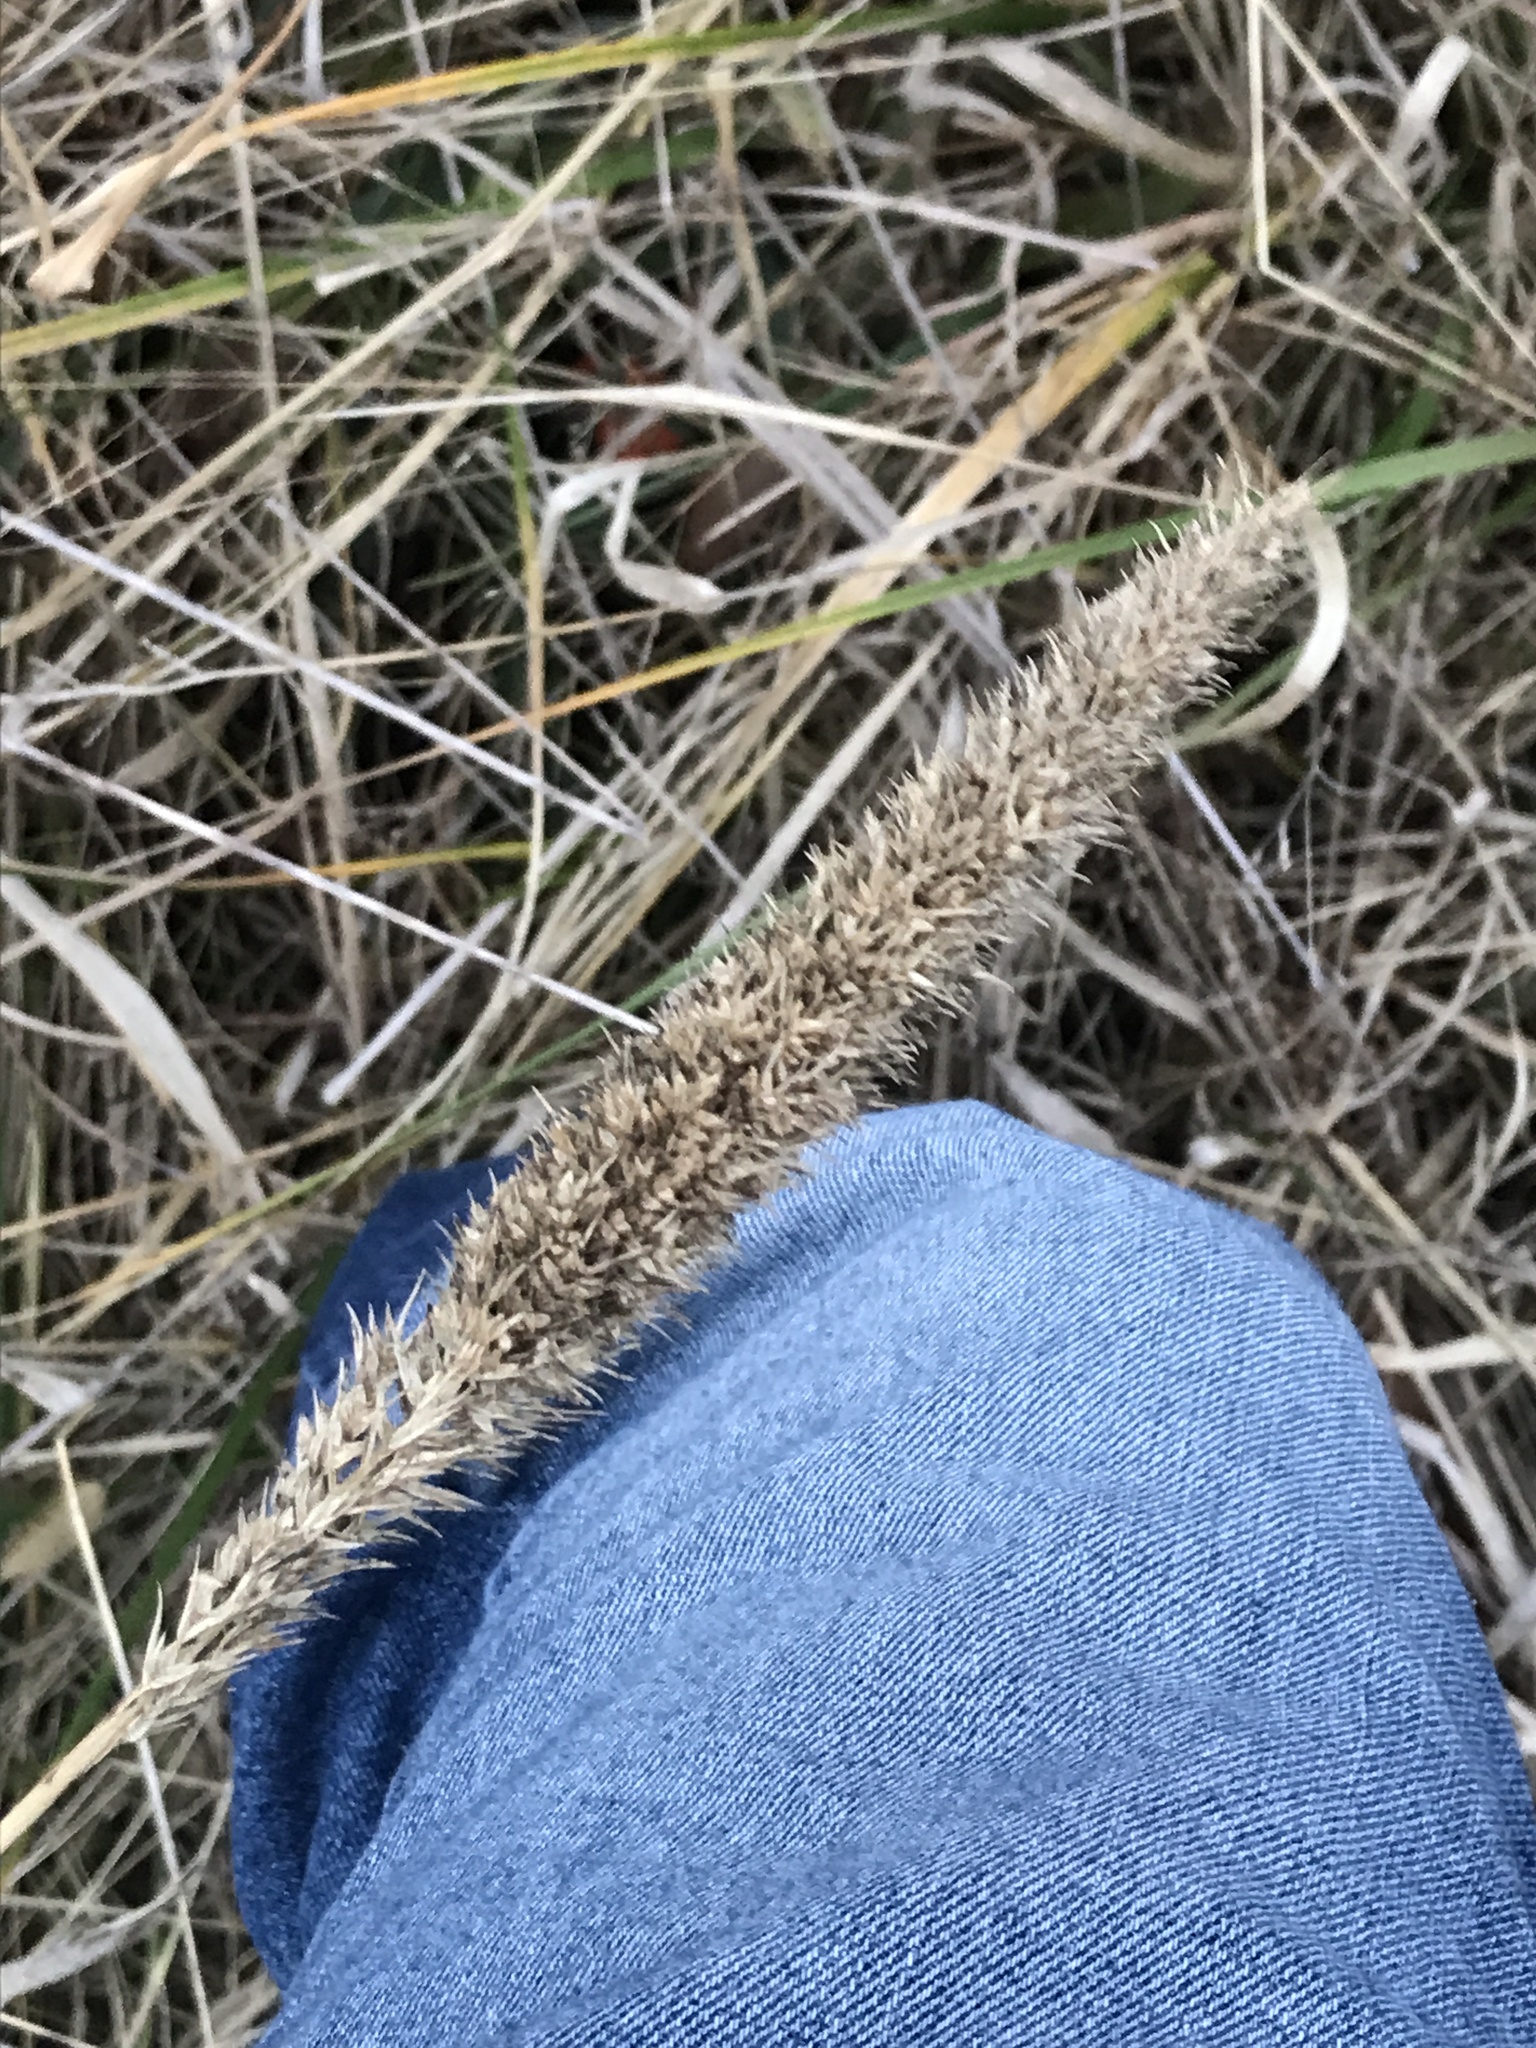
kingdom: Plantae
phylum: Tracheophyta
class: Liliopsida
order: Poales
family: Poaceae
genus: Tridens
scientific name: Tridens strictus
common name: Long-spike tridens
